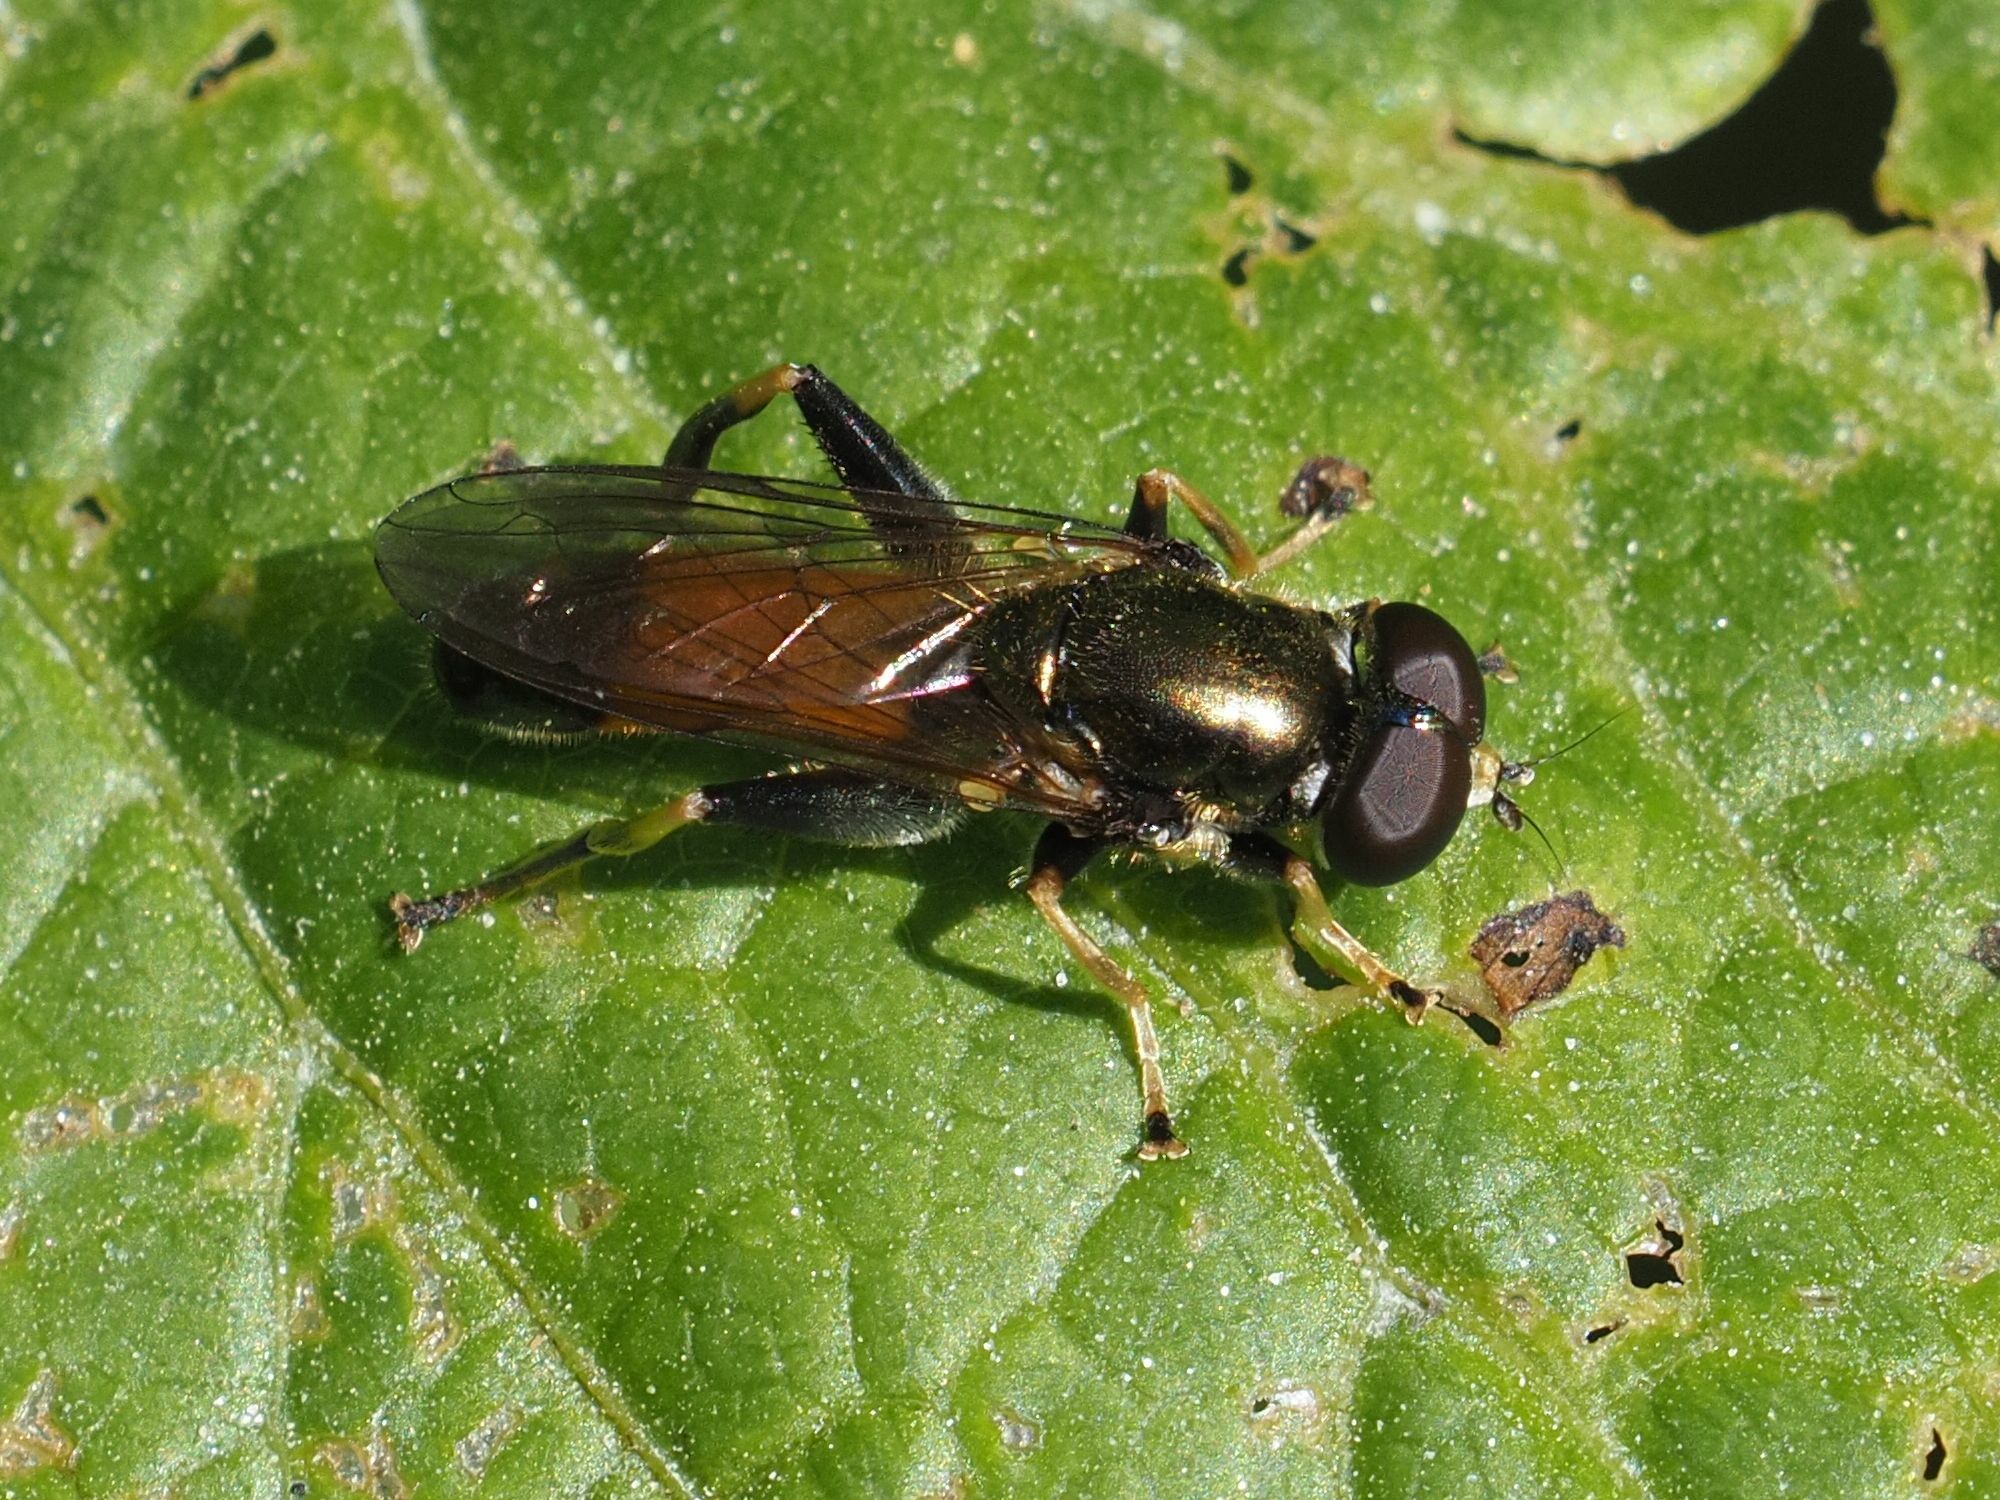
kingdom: Animalia
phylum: Arthropoda
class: Insecta
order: Diptera
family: Syrphidae
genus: Xylota
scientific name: Xylota segnis
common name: Brown-toed forest fly
